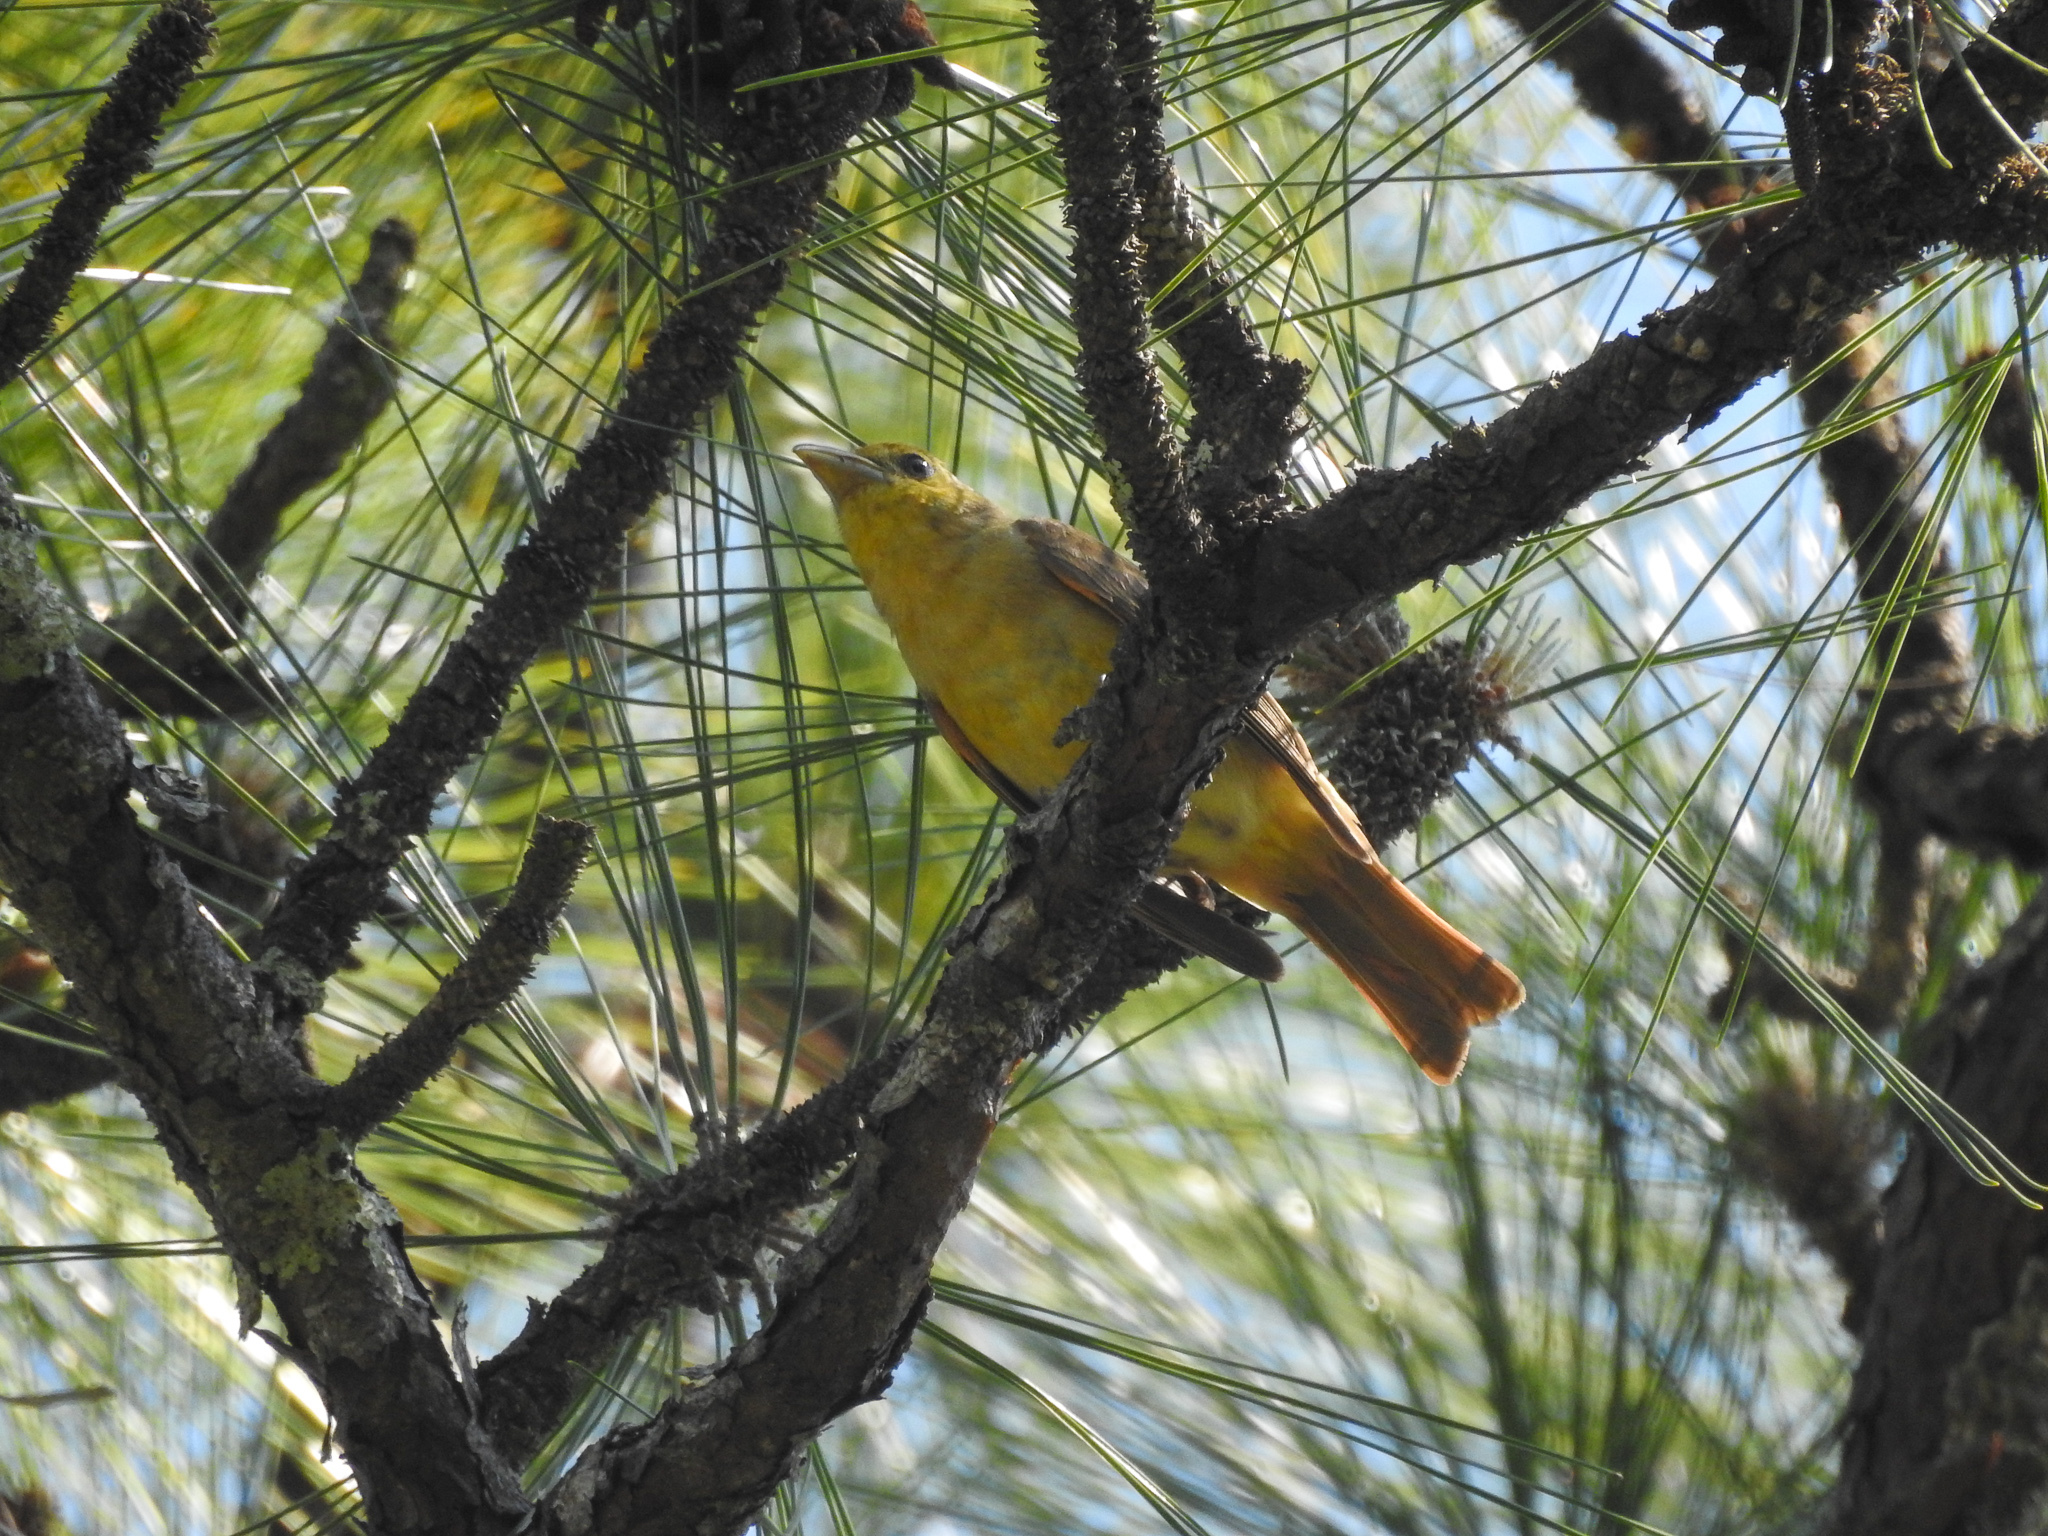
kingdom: Animalia
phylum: Chordata
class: Aves
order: Passeriformes
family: Cardinalidae
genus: Piranga
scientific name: Piranga rubra
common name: Summer tanager
